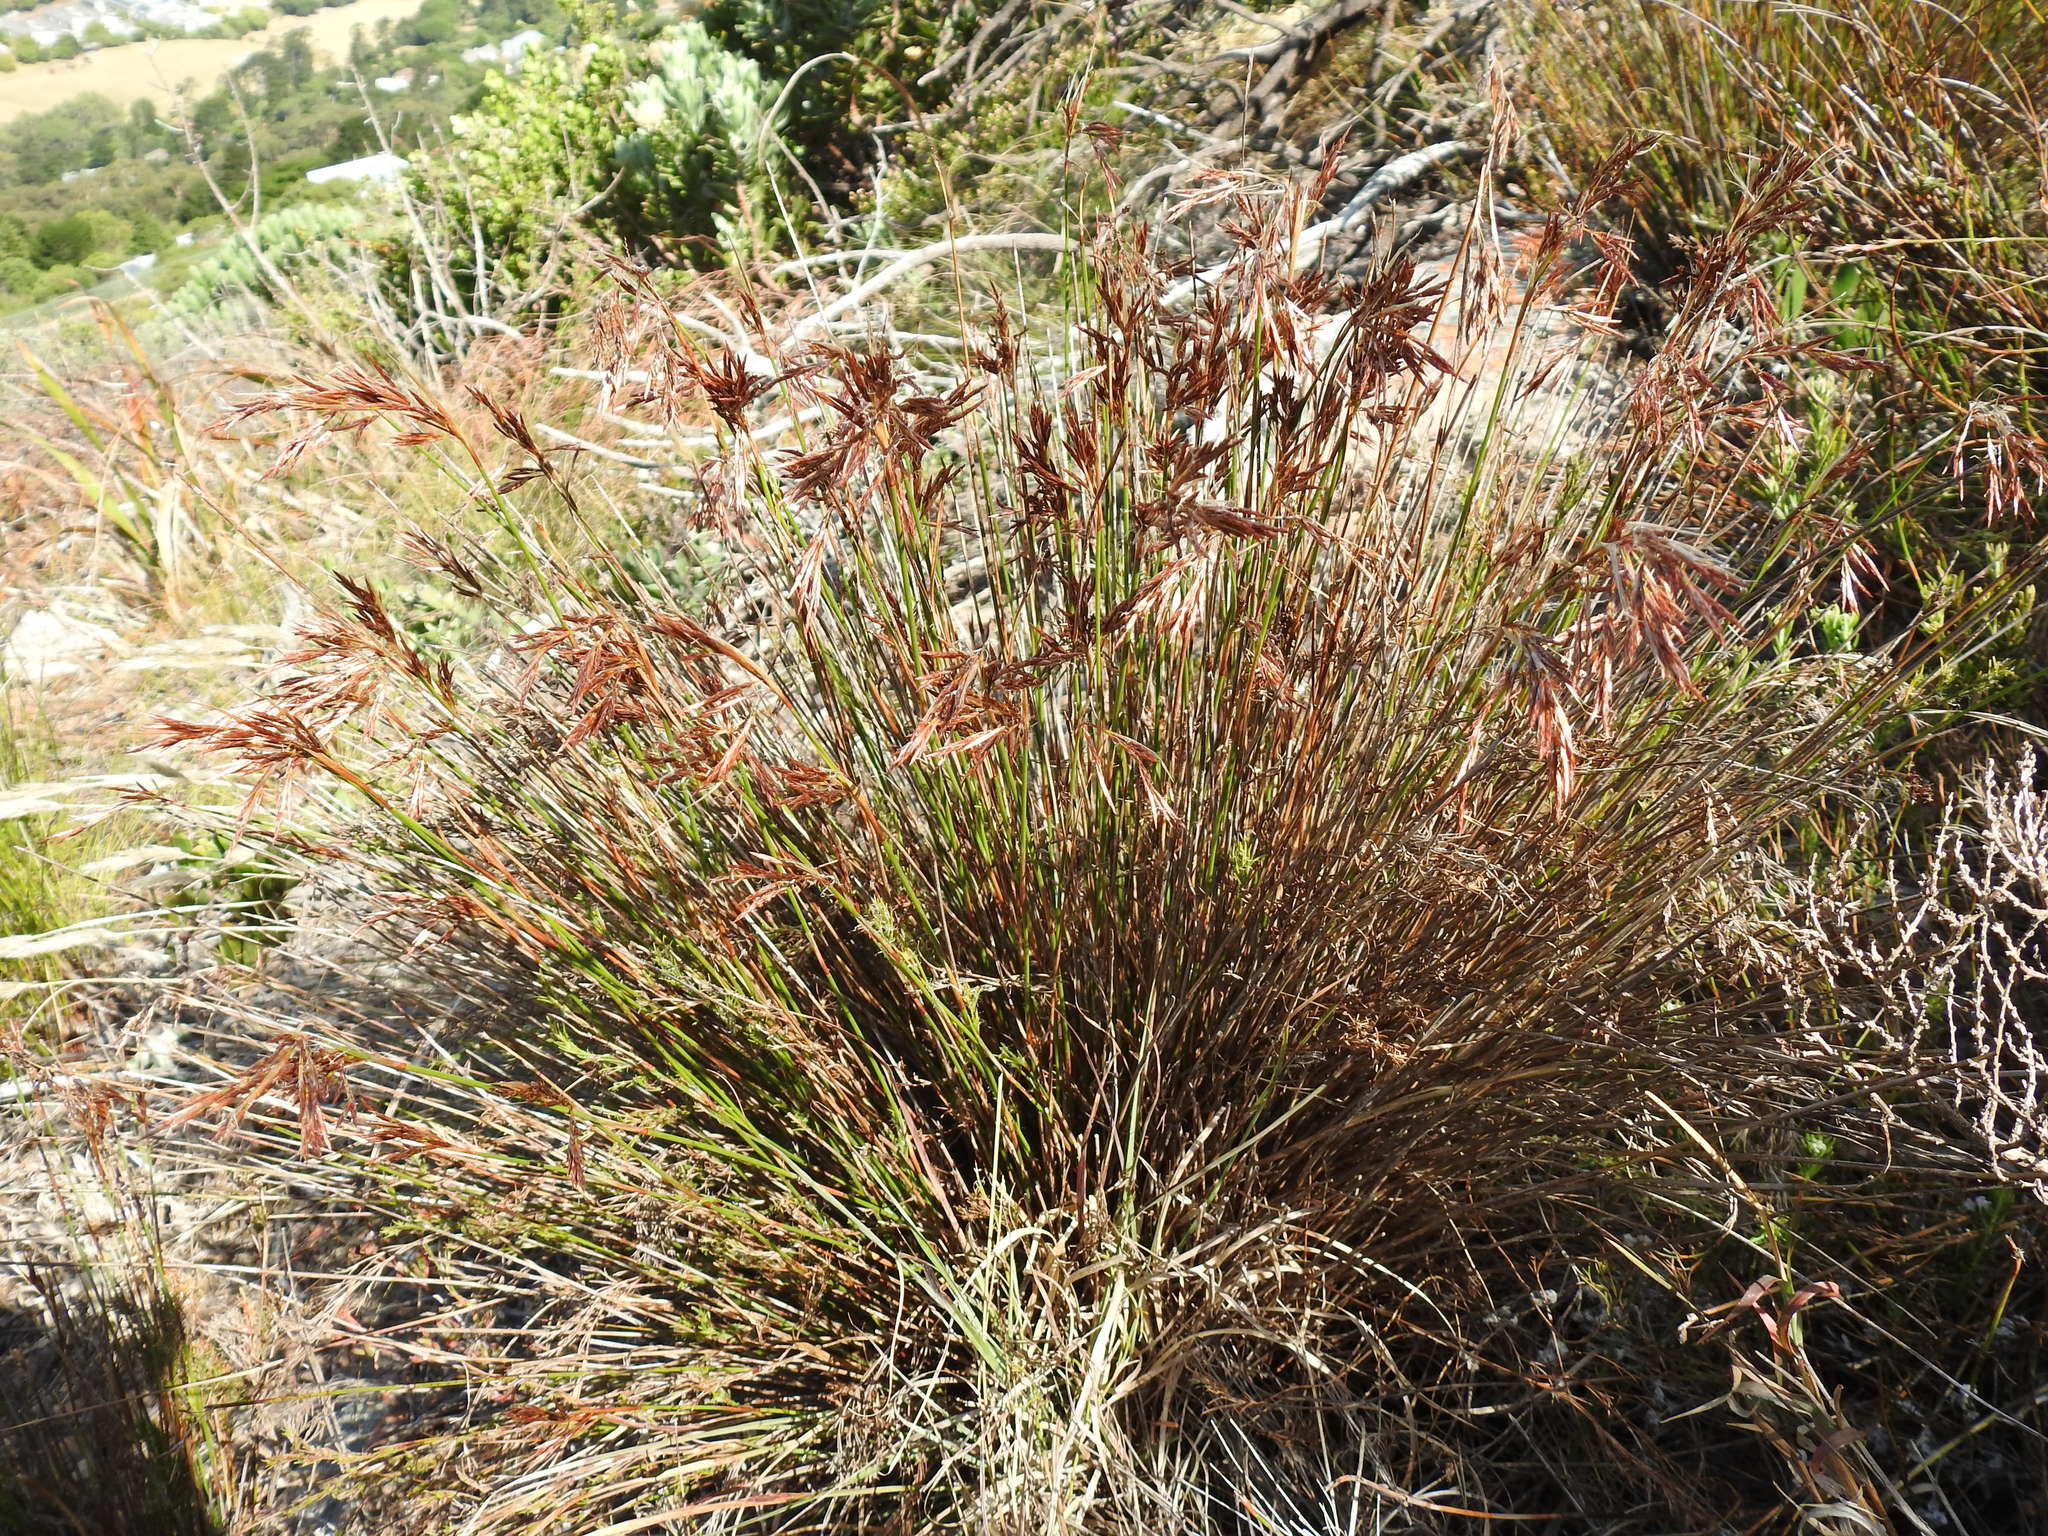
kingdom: Plantae
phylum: Tracheophyta
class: Liliopsida
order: Poales
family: Restionaceae
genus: Thamnochortus
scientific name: Thamnochortus lucens
